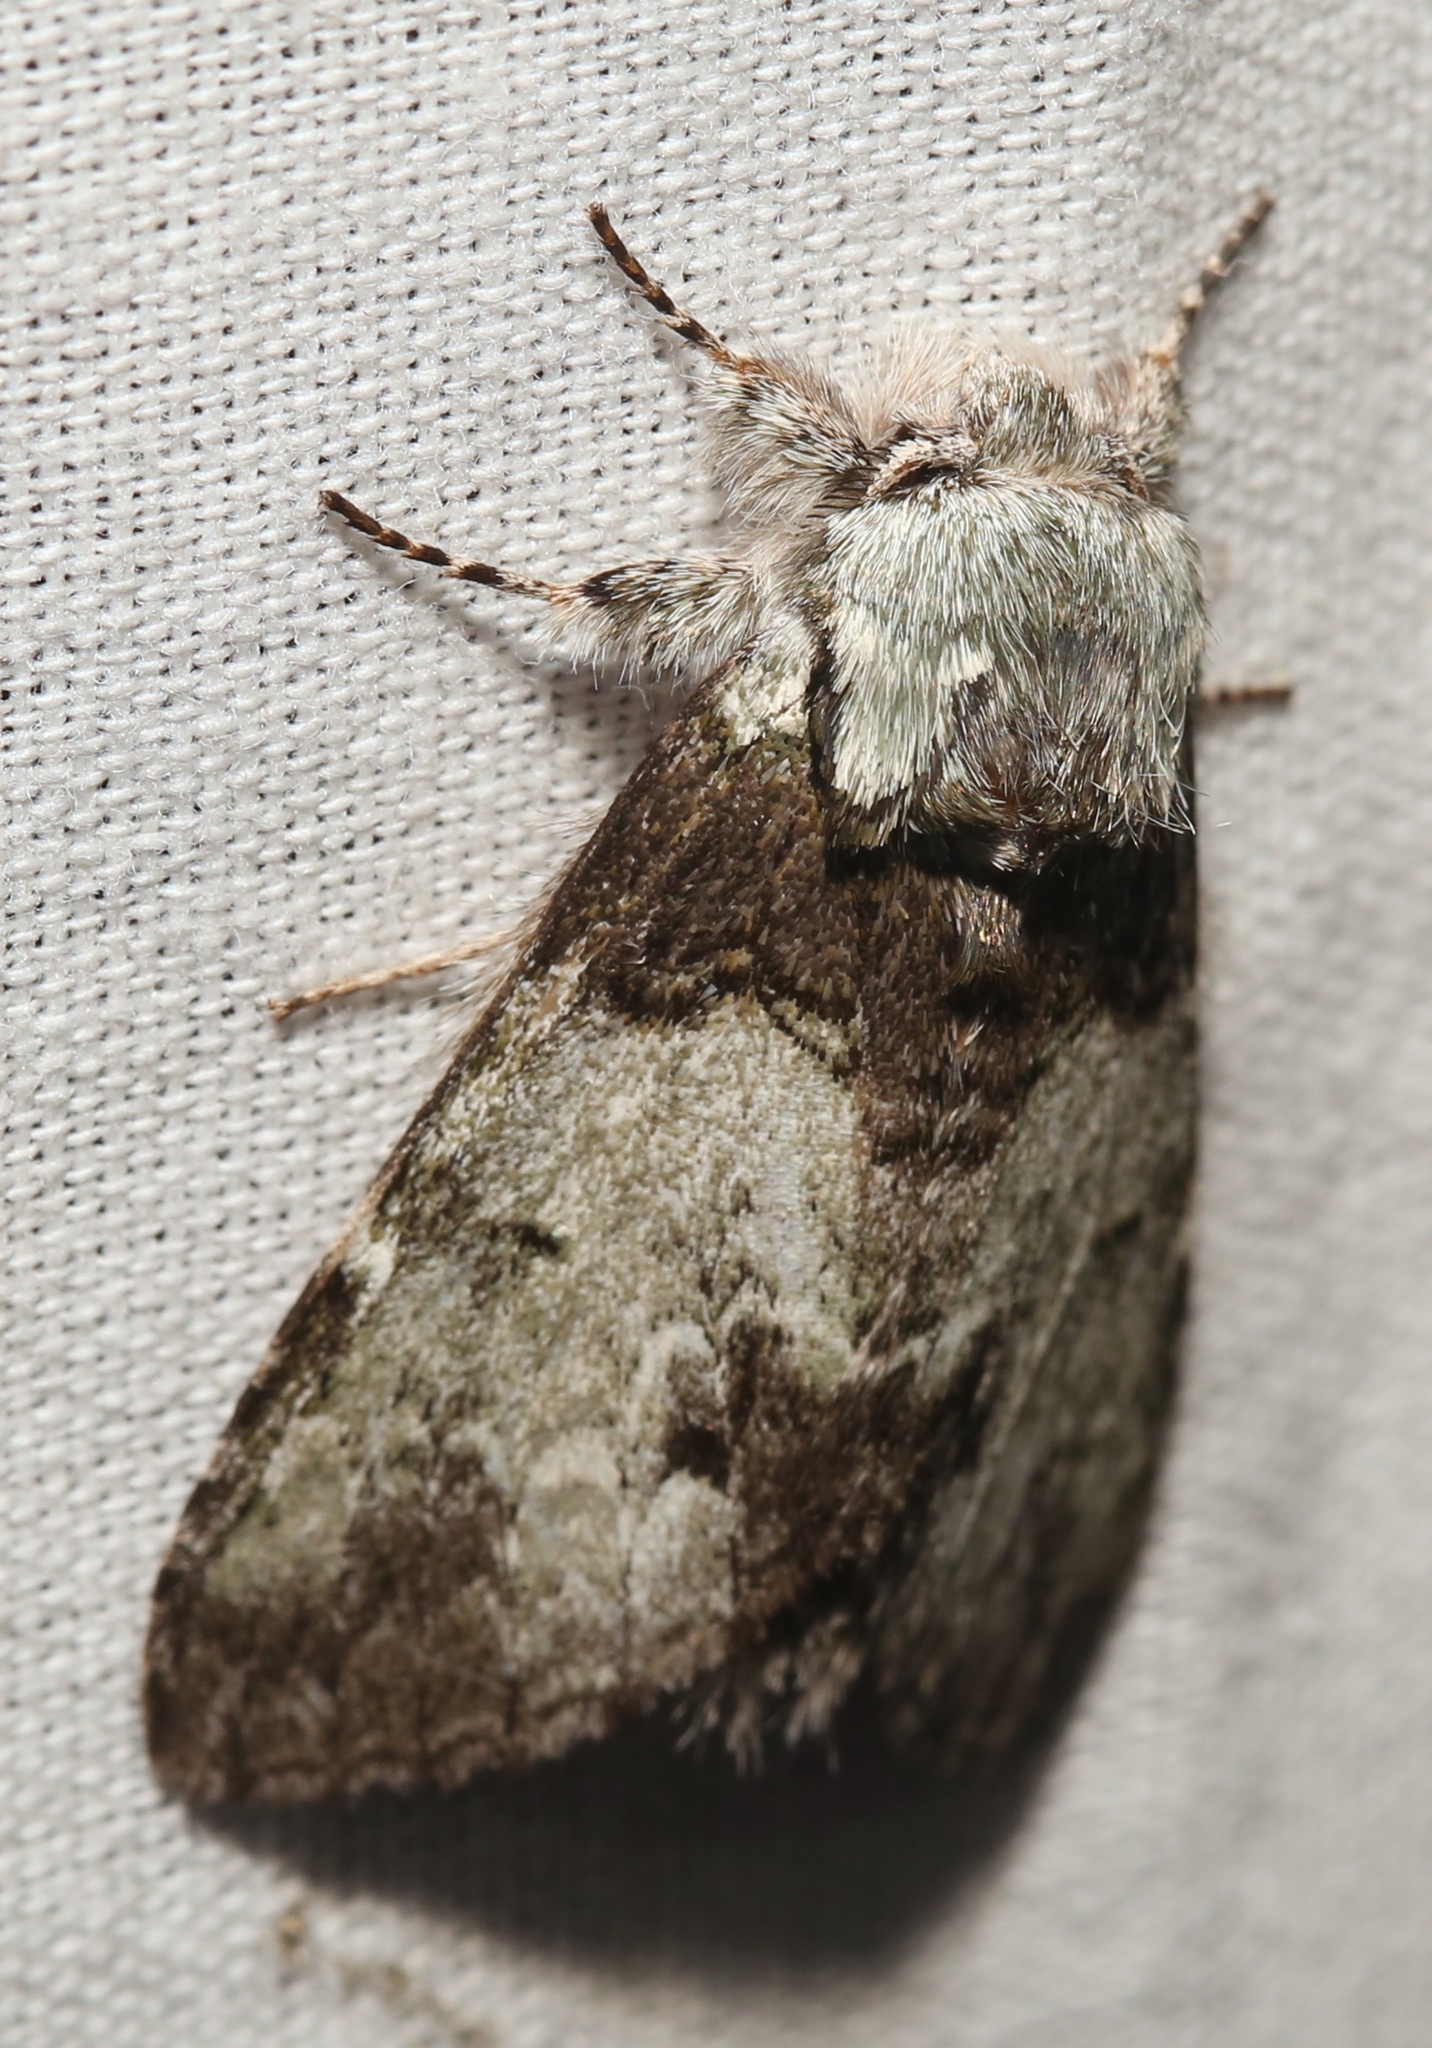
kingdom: Animalia
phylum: Arthropoda
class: Insecta
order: Lepidoptera
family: Notodontidae
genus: Macrurocampa
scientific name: Macrurocampa marthesia
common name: Mottled prominent
